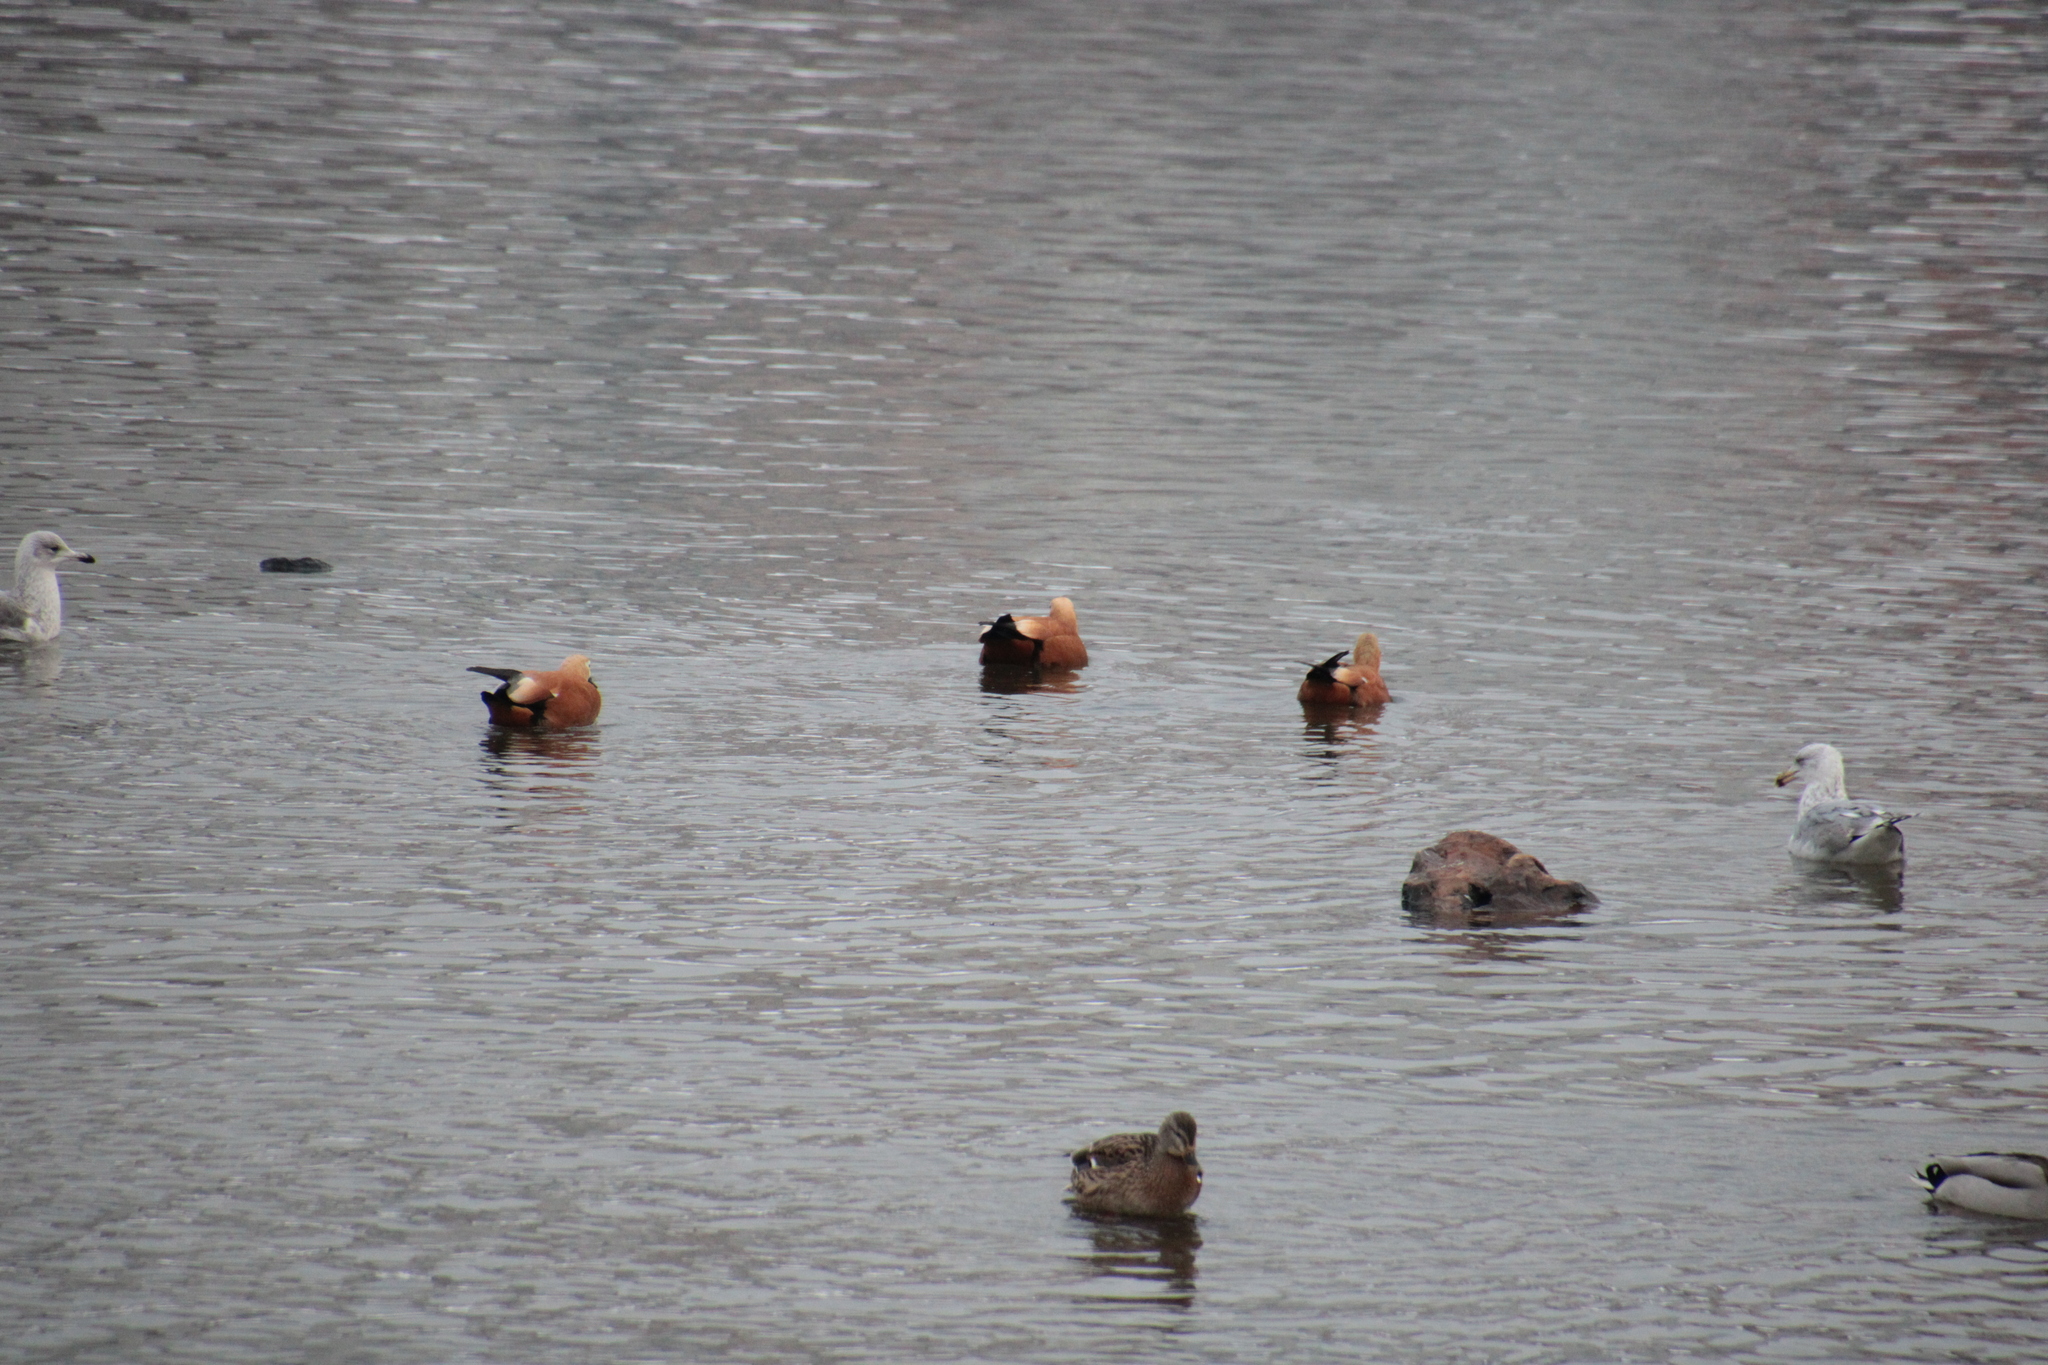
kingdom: Animalia
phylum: Chordata
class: Aves
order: Anseriformes
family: Anatidae
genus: Tadorna
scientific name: Tadorna ferruginea
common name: Ruddy shelduck
